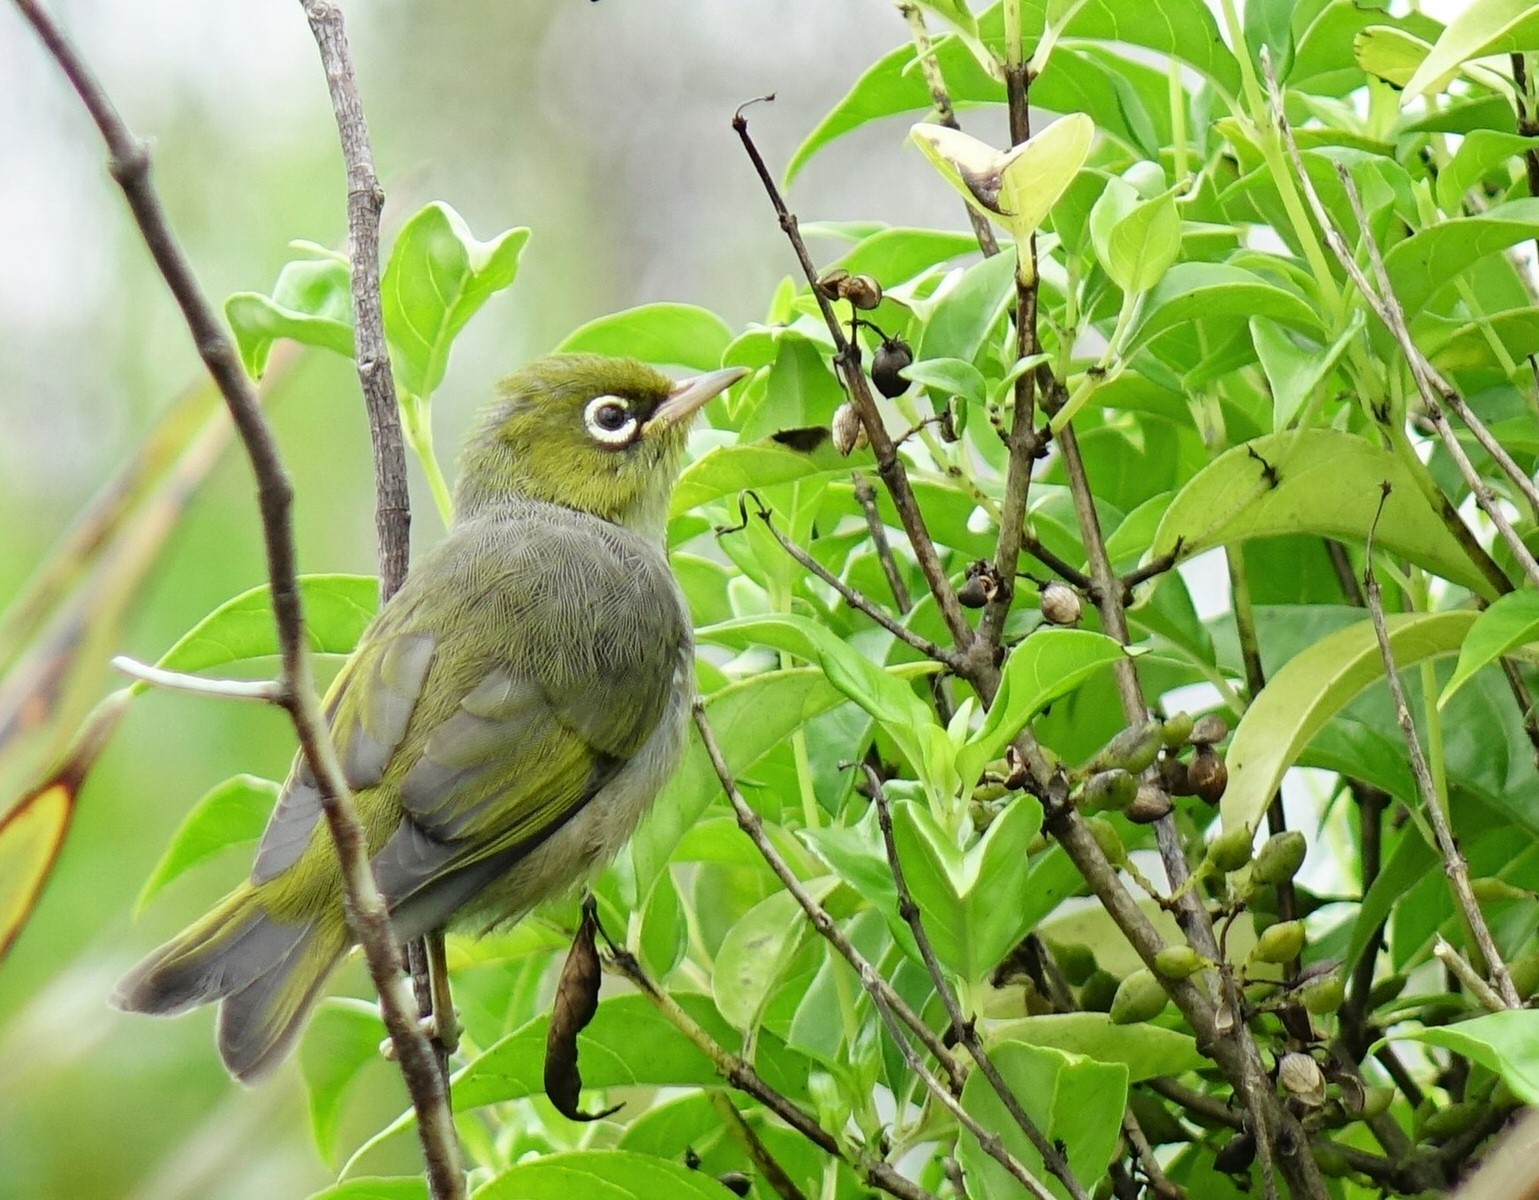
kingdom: Animalia
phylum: Chordata
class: Aves
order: Passeriformes
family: Zosteropidae
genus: Zosterops
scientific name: Zosterops lateralis
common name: Silvereye
